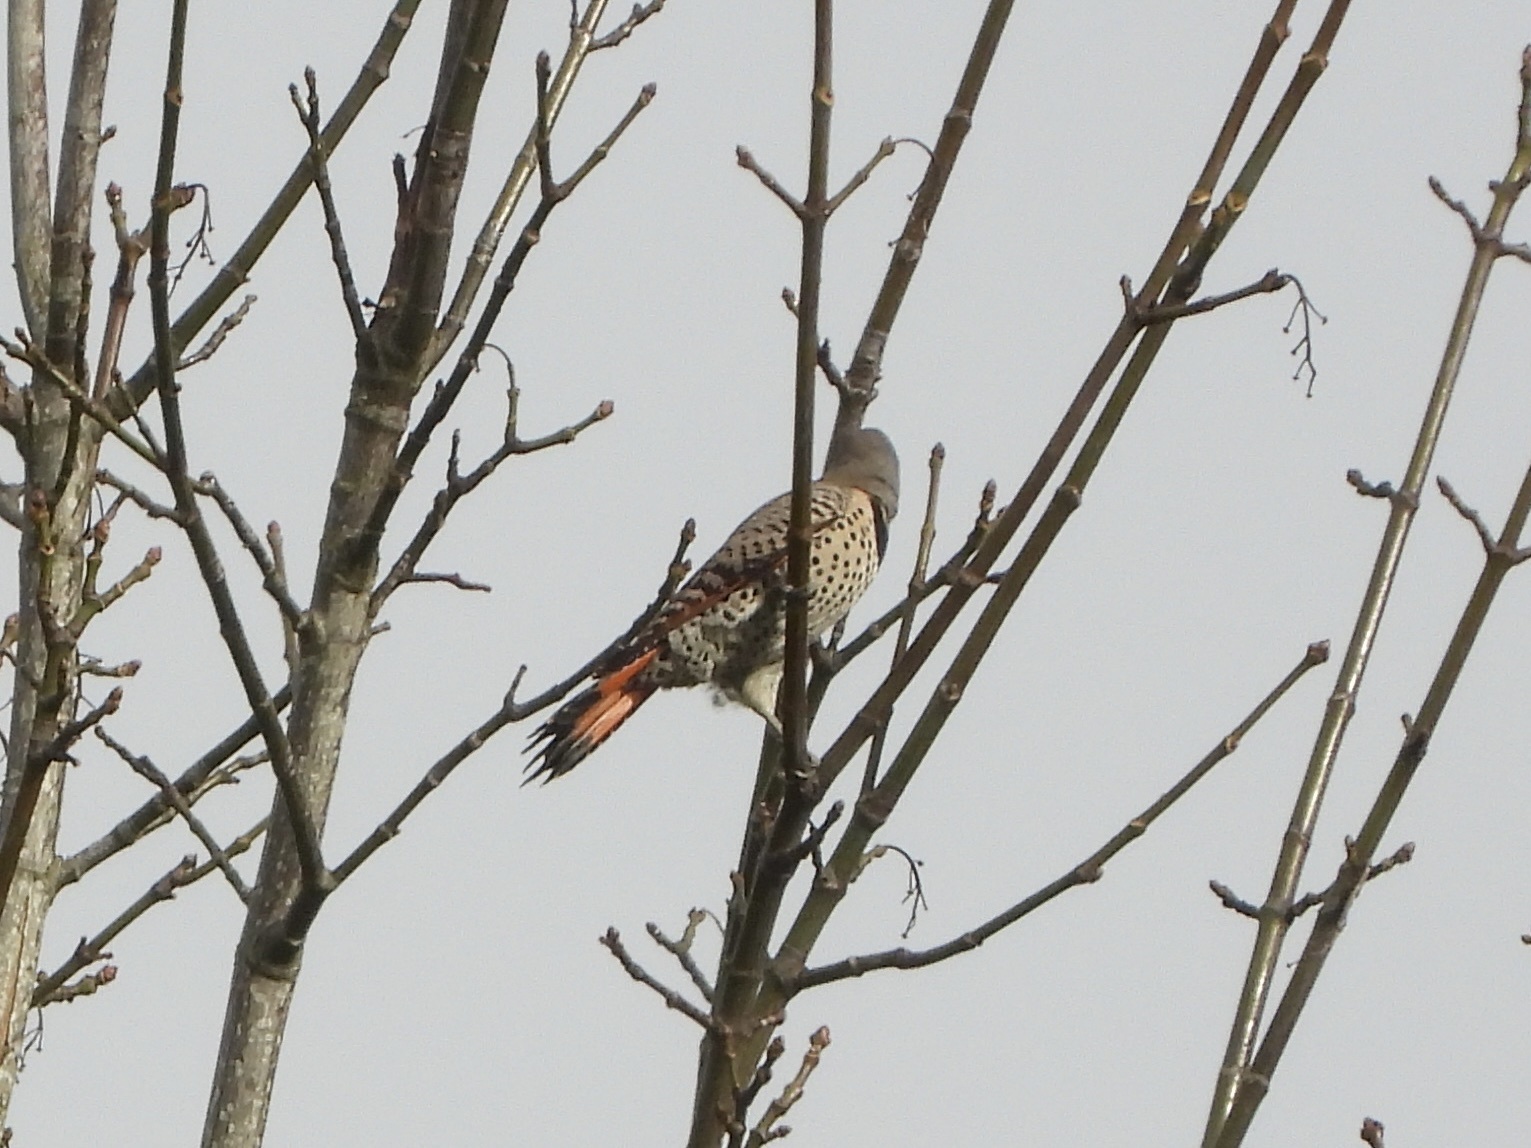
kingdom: Animalia
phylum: Chordata
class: Aves
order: Piciformes
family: Picidae
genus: Colaptes
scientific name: Colaptes auratus
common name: Northern flicker
